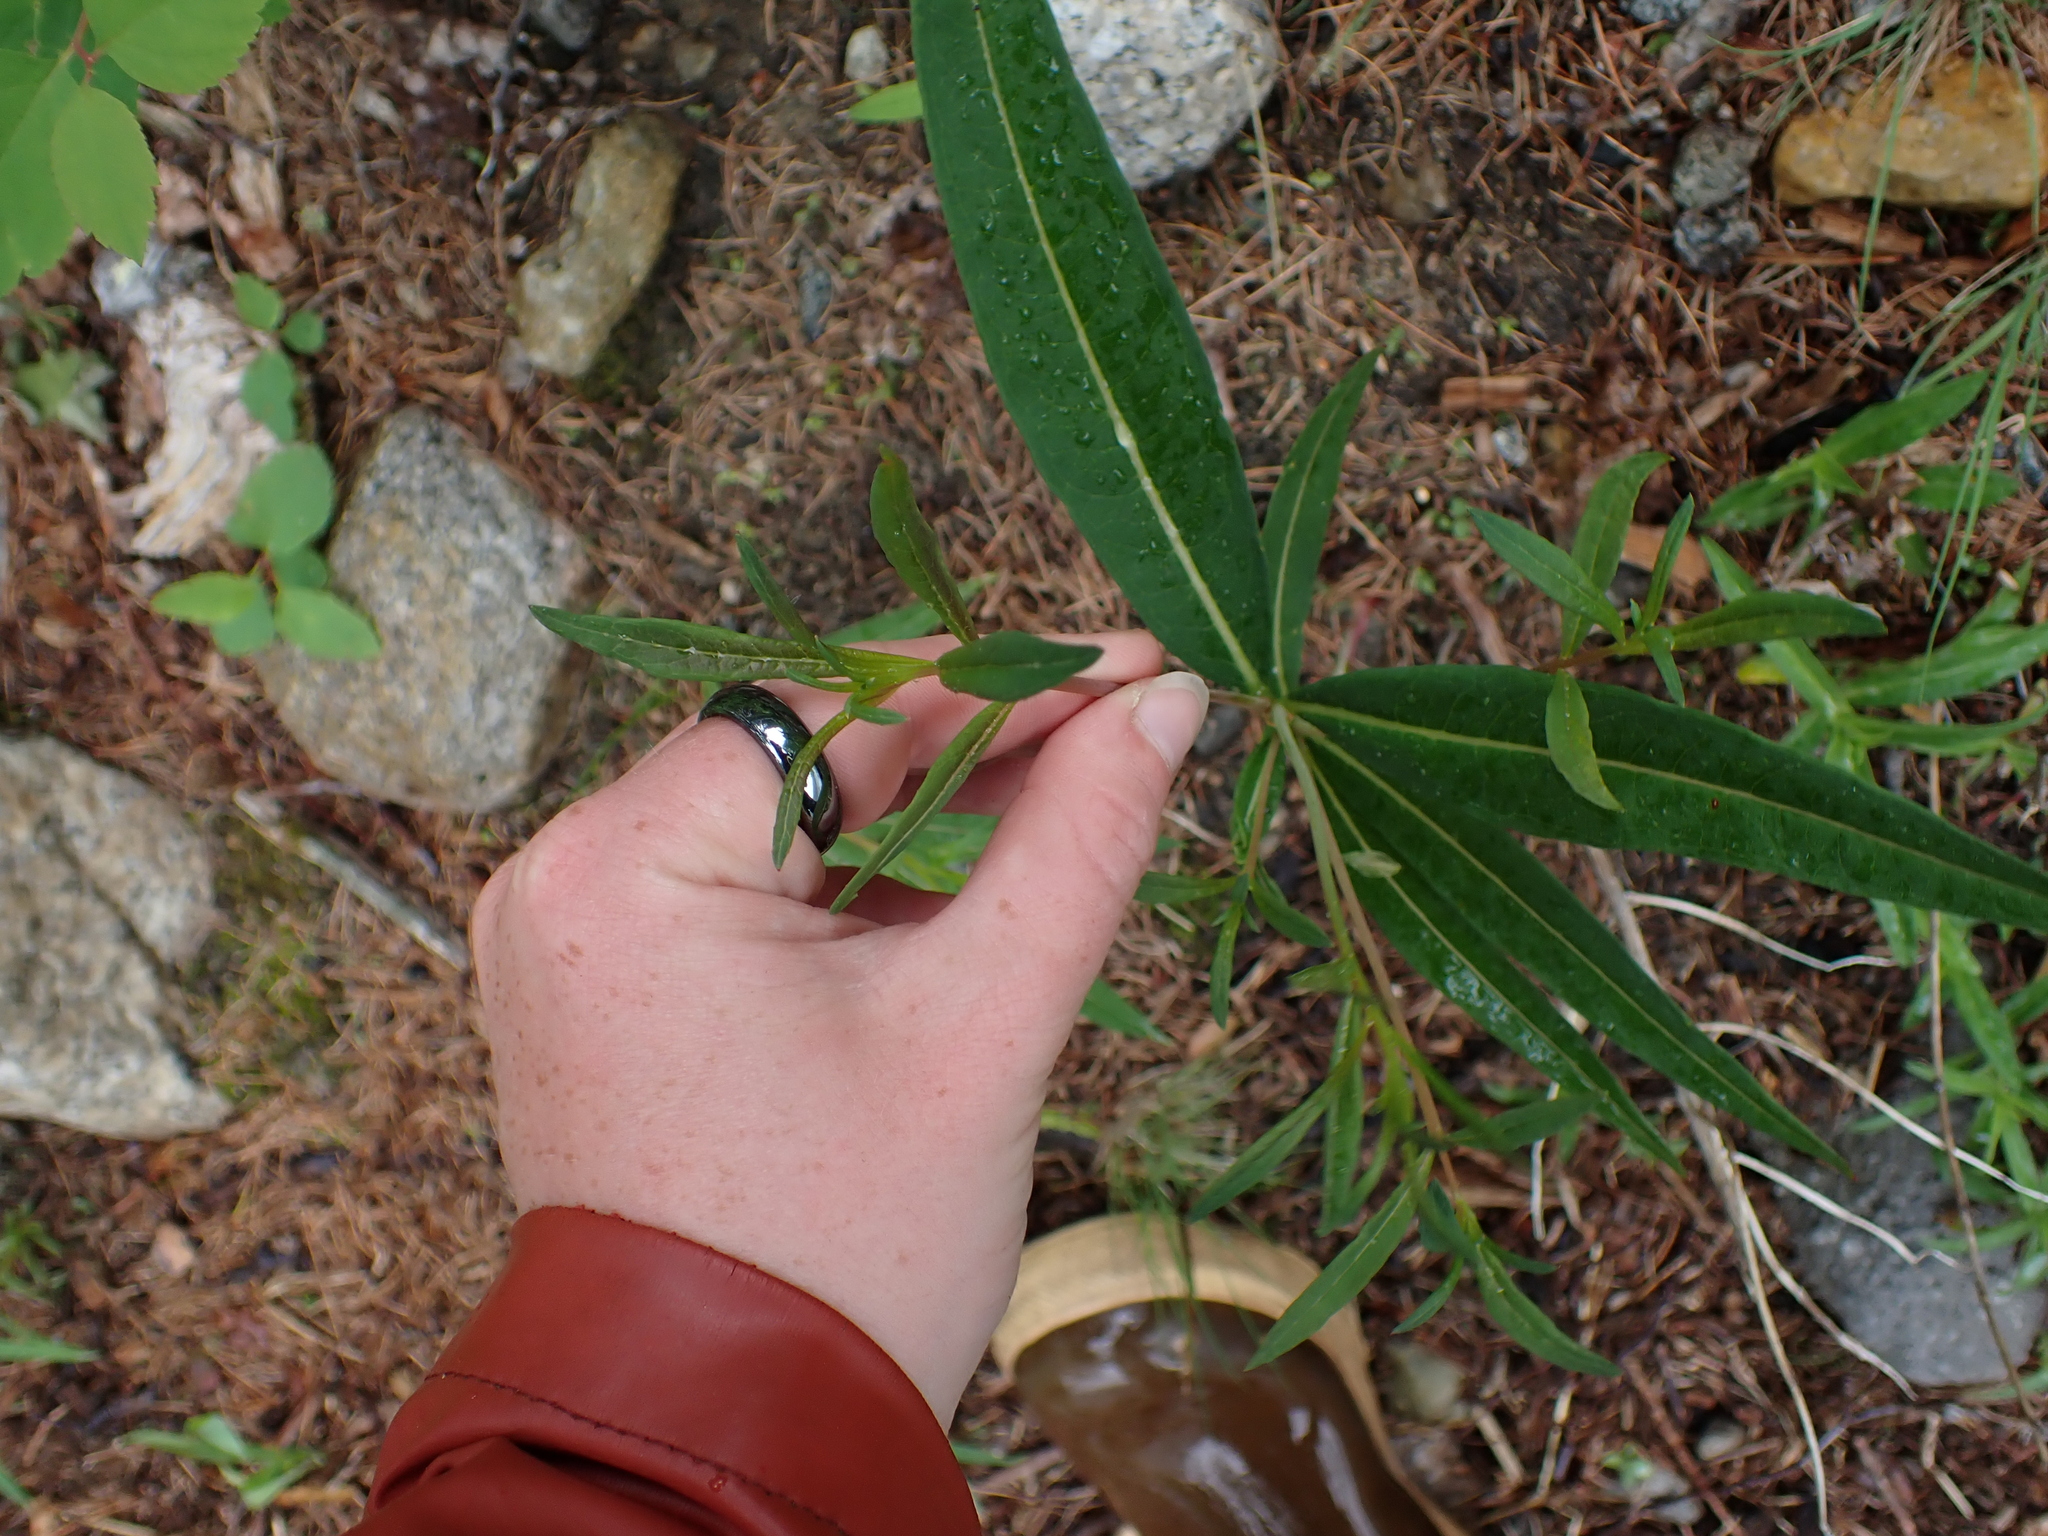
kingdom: Plantae
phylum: Tracheophyta
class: Magnoliopsida
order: Myrtales
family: Onagraceae
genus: Chamaenerion
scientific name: Chamaenerion angustifolium
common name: Fireweed
